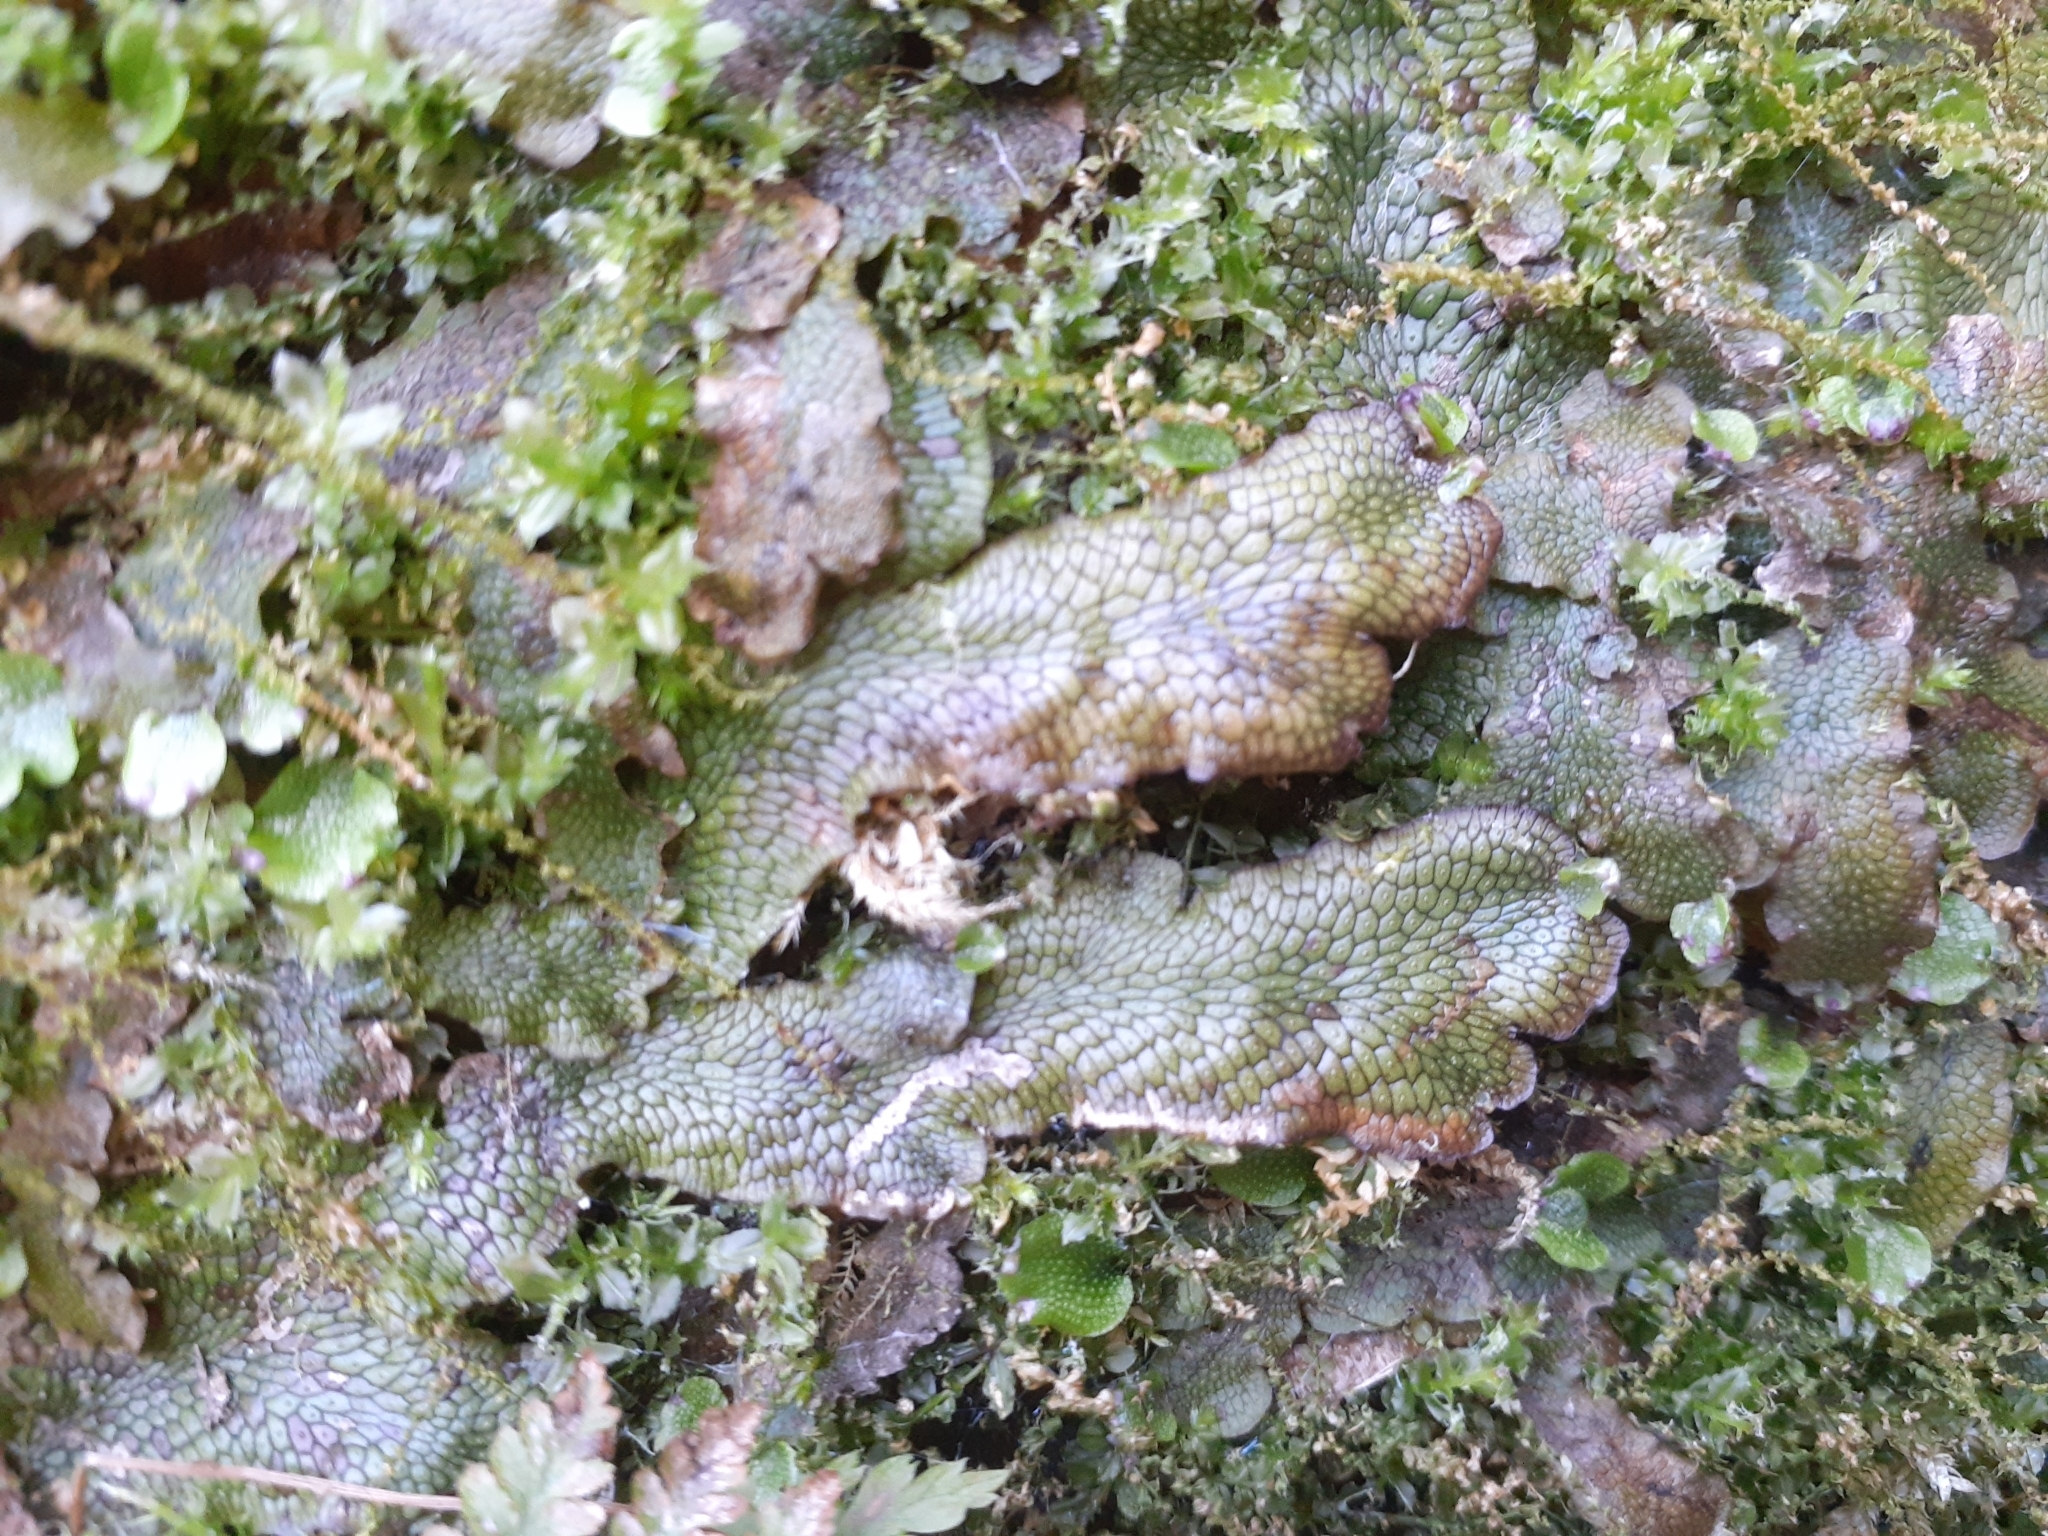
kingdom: Plantae
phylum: Marchantiophyta
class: Marchantiopsida
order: Marchantiales
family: Conocephalaceae
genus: Conocephalum
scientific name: Conocephalum salebrosum
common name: Cat-tongue liverwort
